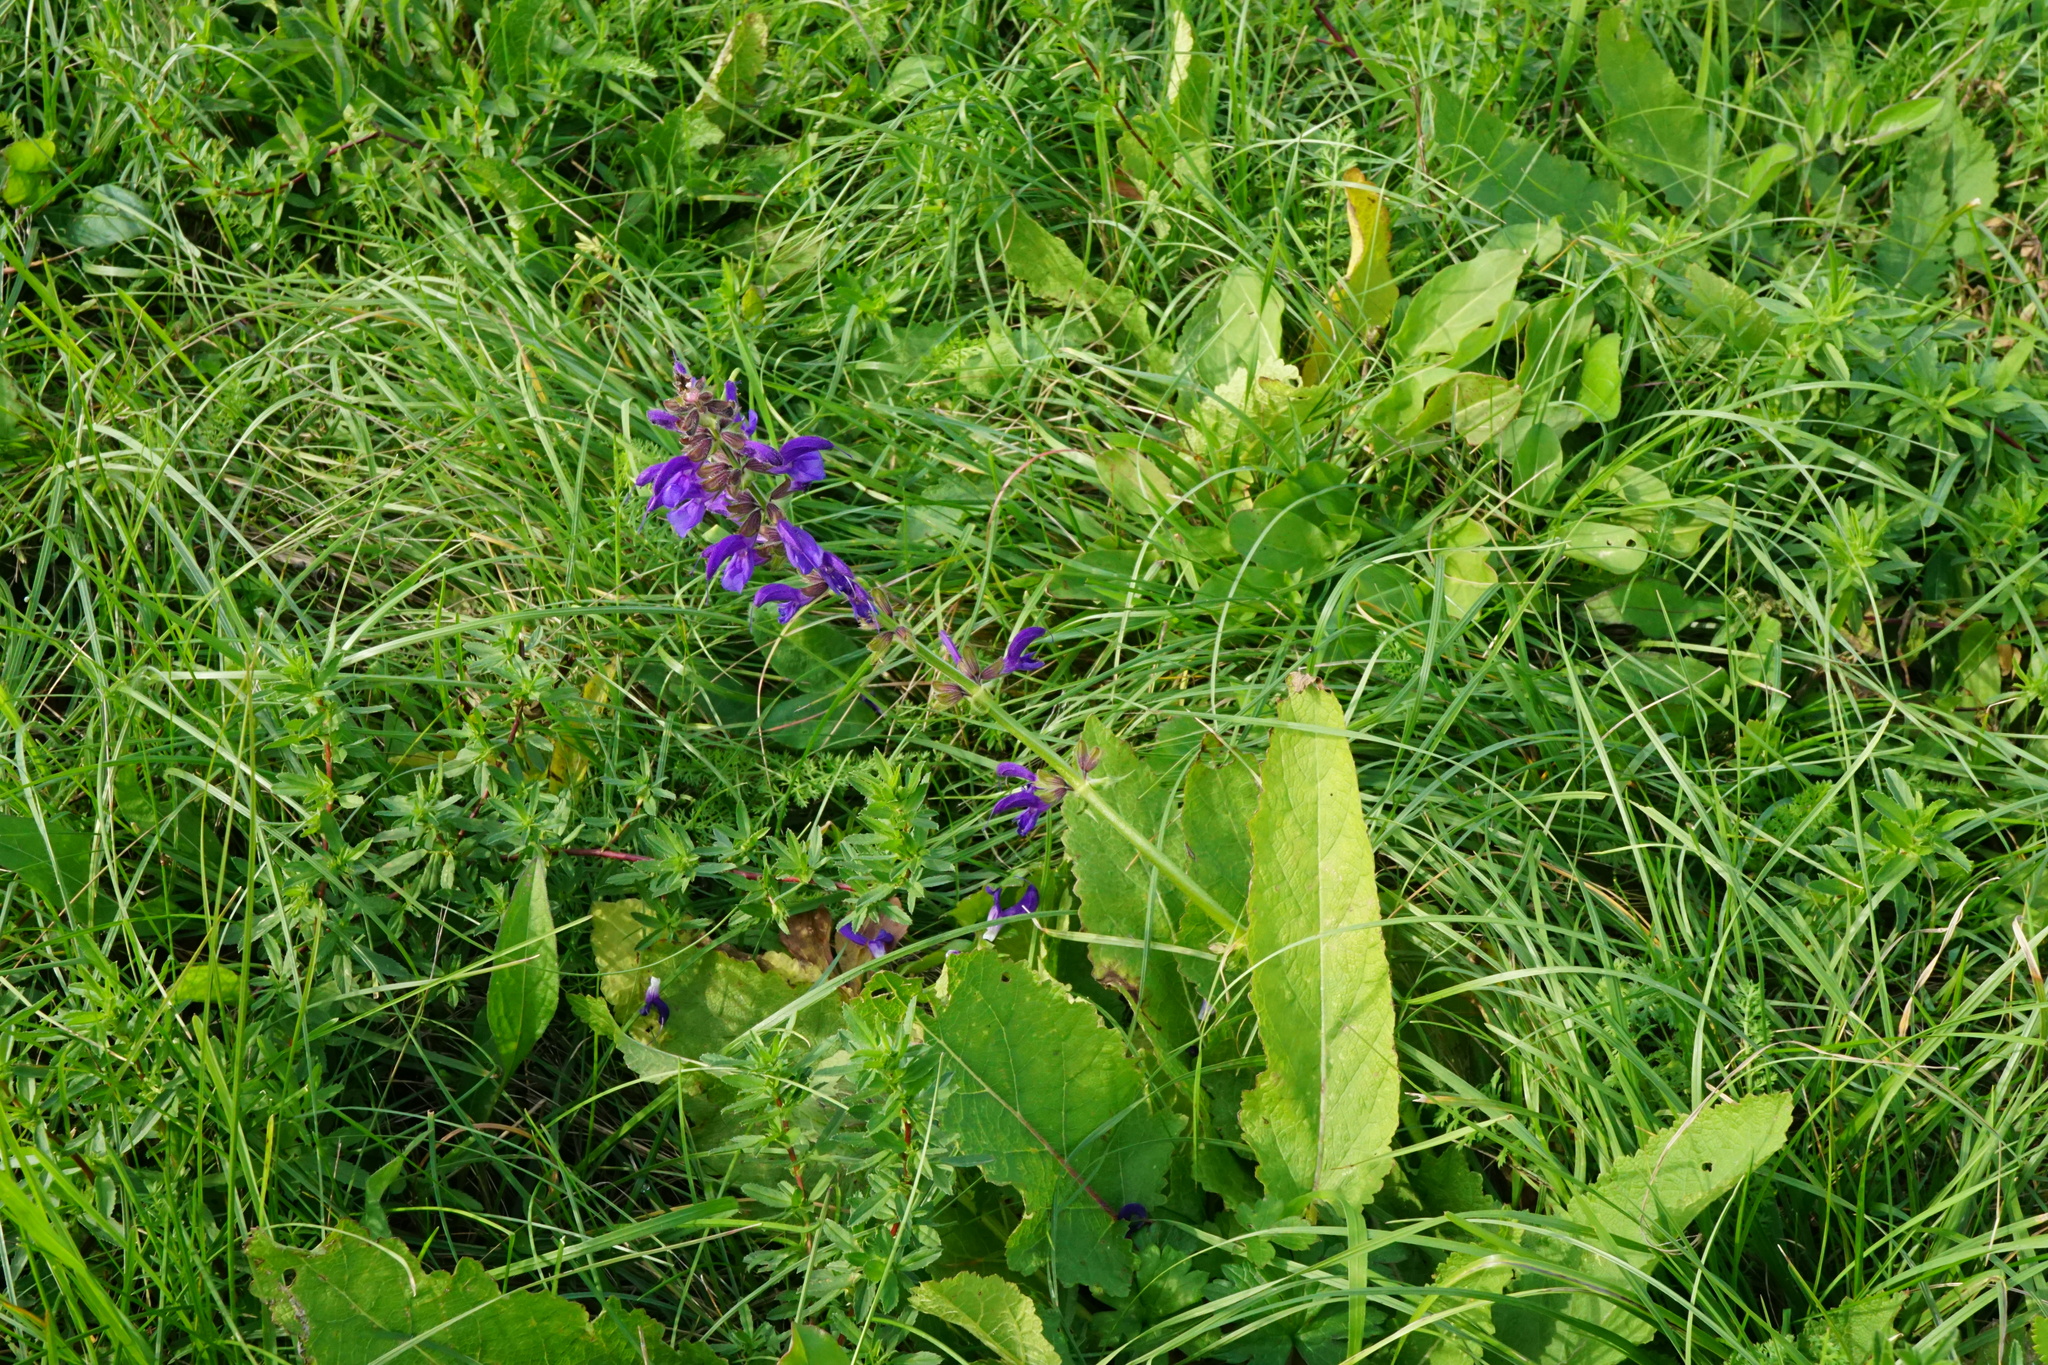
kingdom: Plantae
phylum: Tracheophyta
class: Magnoliopsida
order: Lamiales
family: Lamiaceae
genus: Salvia
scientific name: Salvia pratensis
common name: Meadow sage
